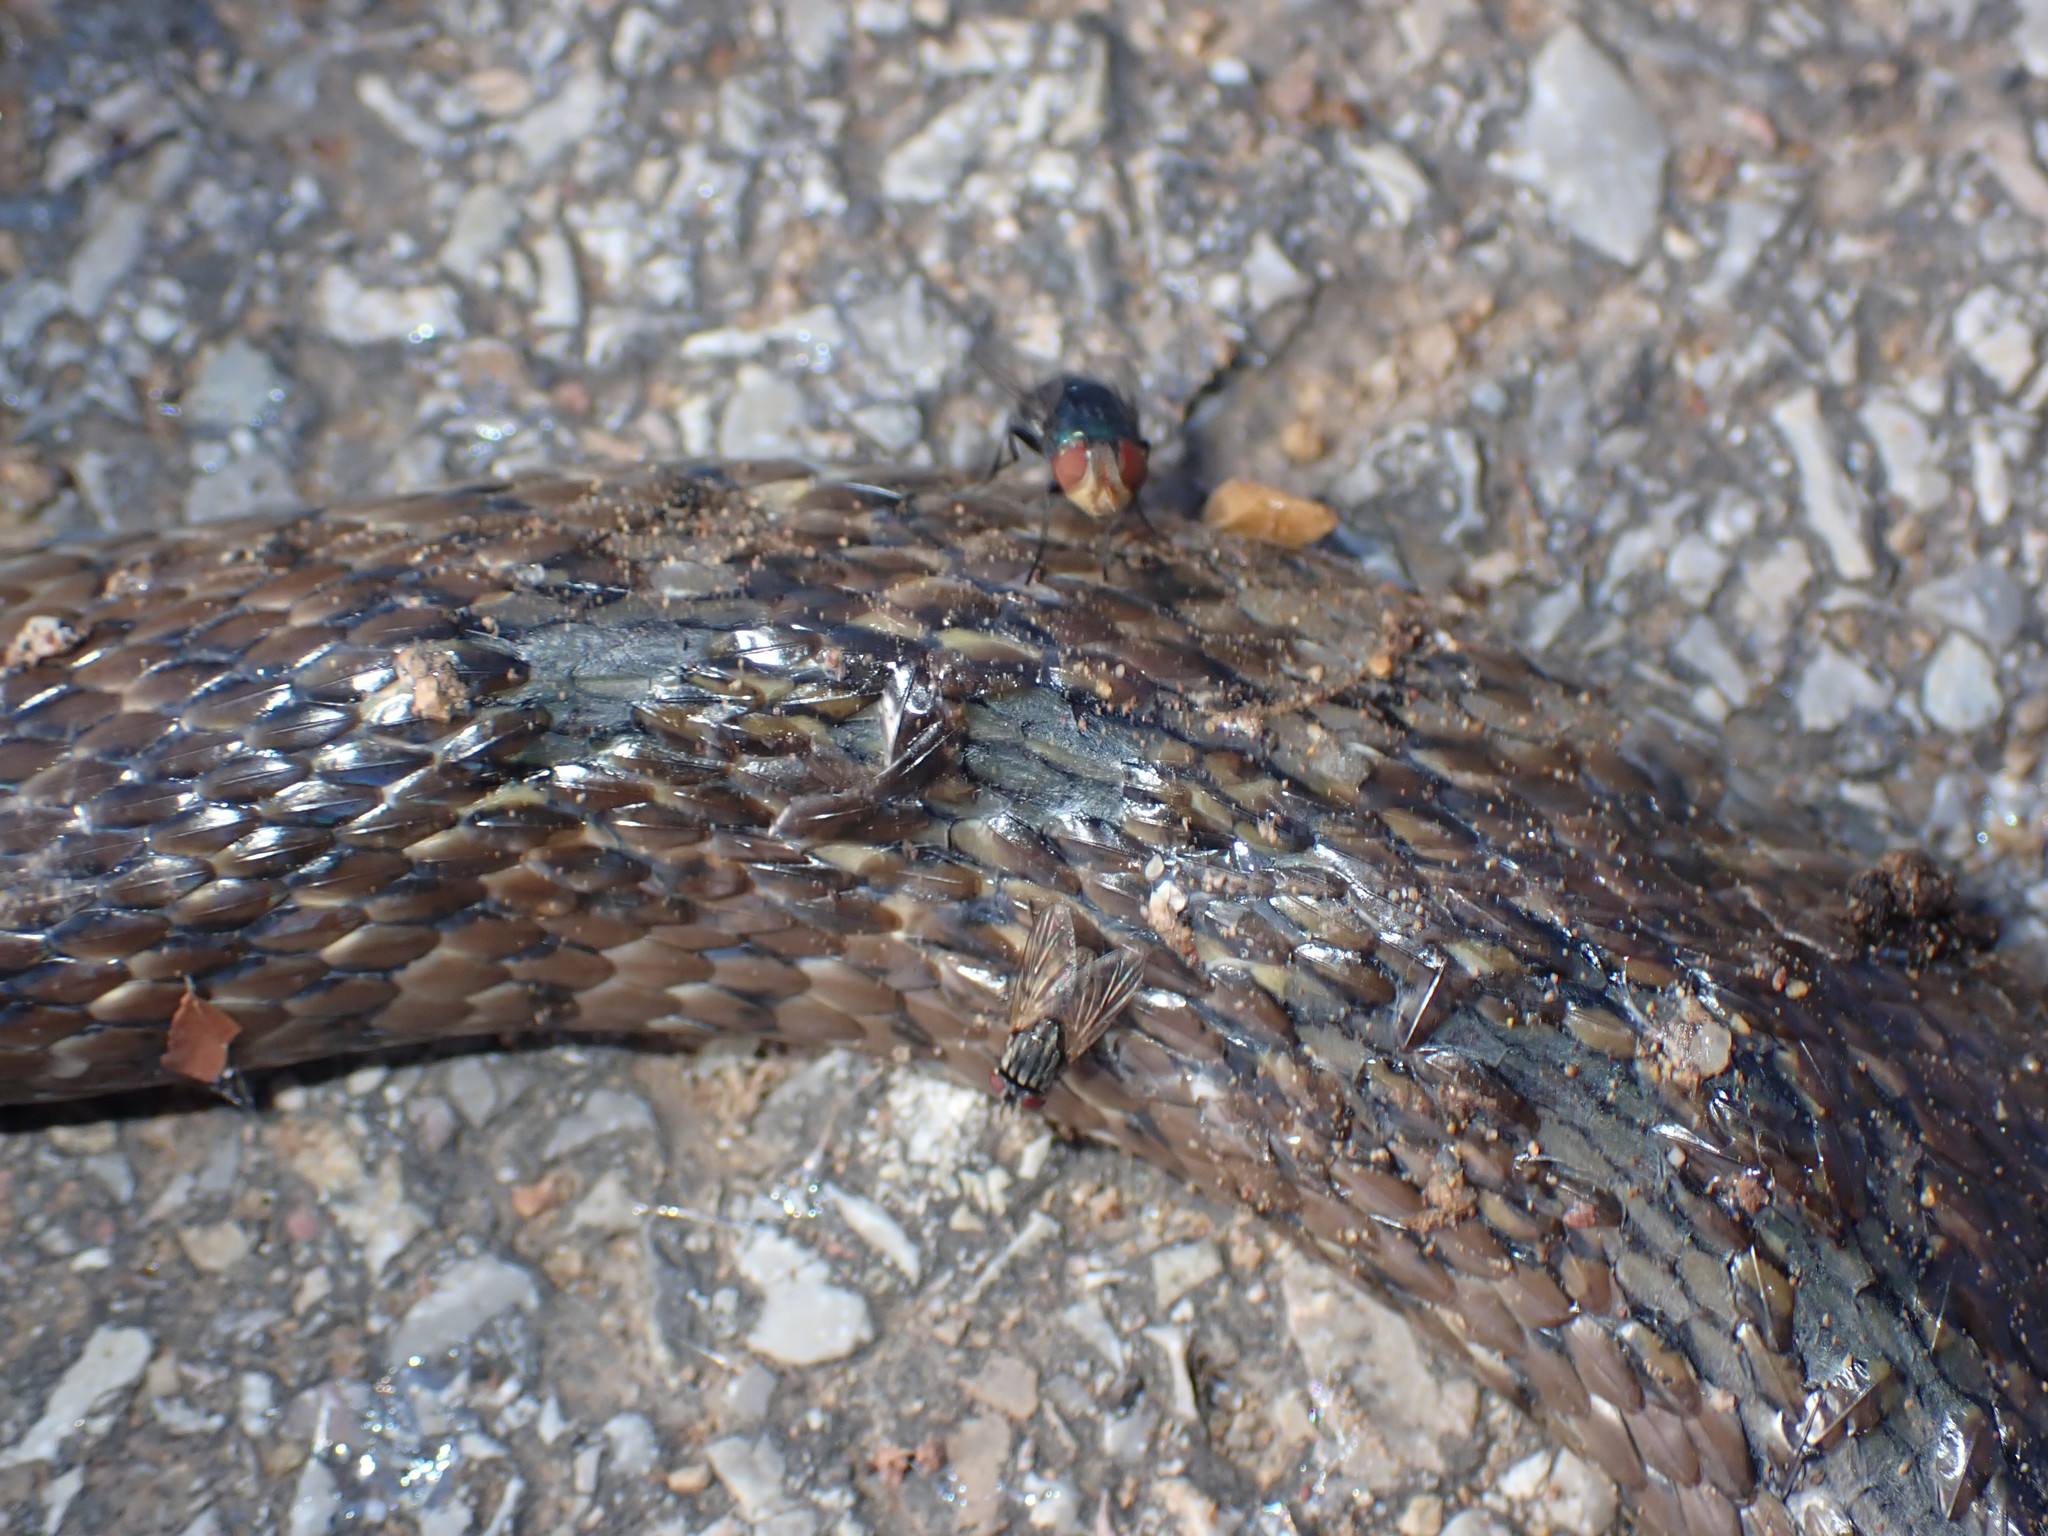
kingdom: Animalia
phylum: Chordata
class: Squamata
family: Colubridae
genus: Fowlea
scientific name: Fowlea flavipunctatus
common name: Yellow-spotted keelback
